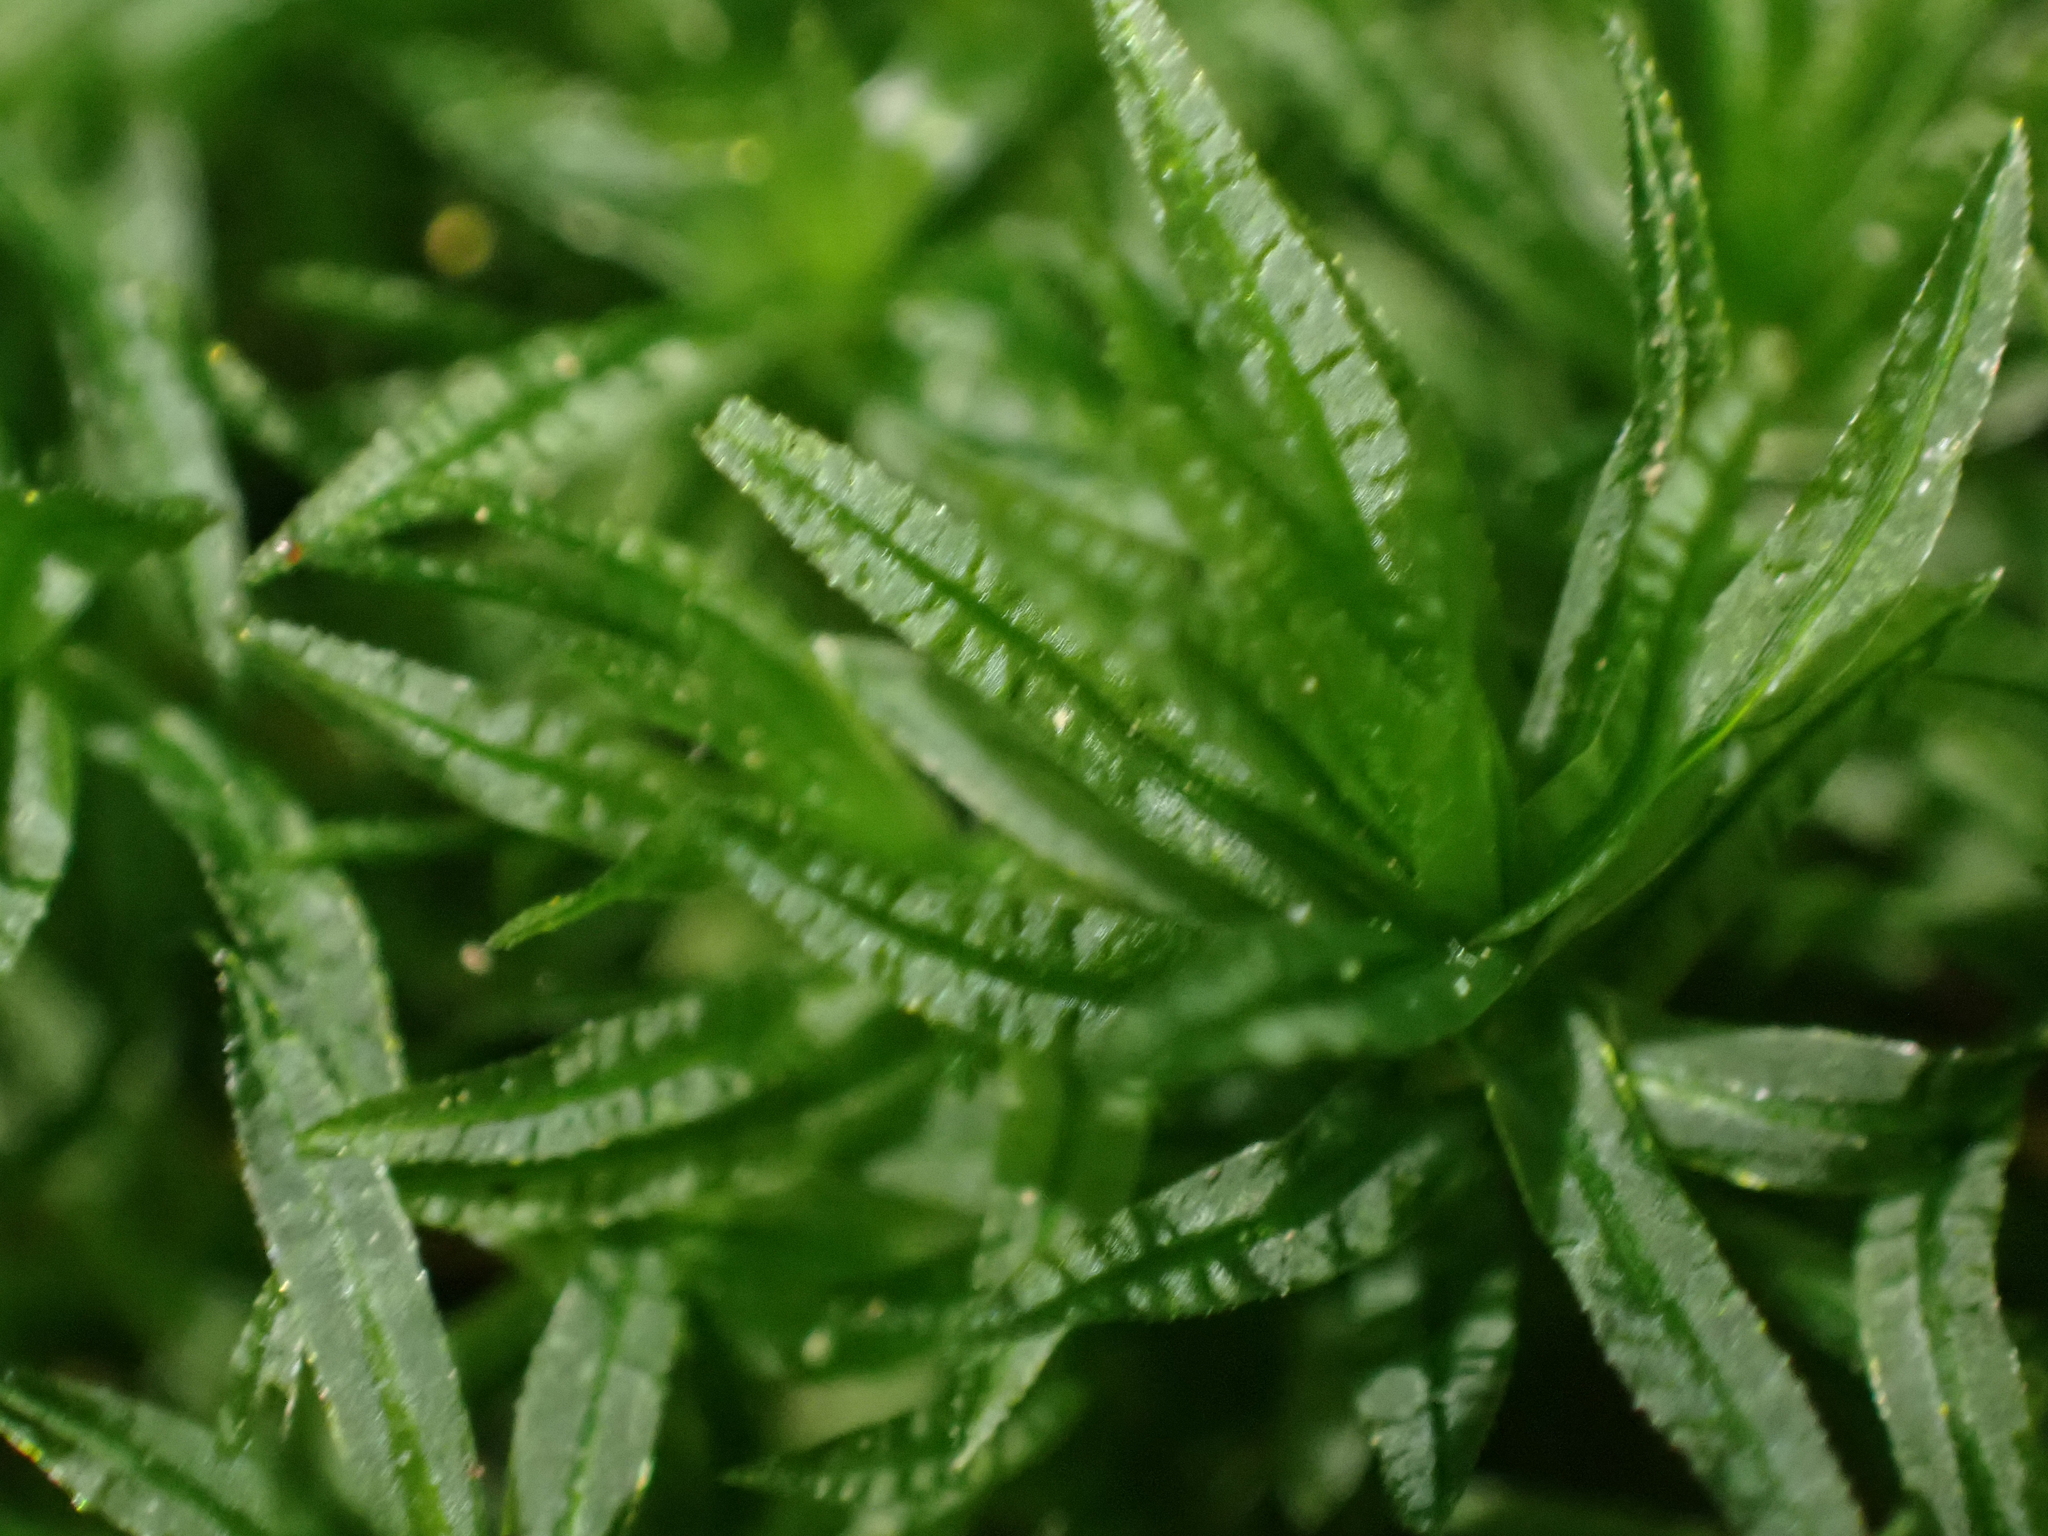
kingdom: Plantae
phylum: Bryophyta
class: Polytrichopsida
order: Polytrichales
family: Polytrichaceae
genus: Atrichum
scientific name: Atrichum undulatum
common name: Common smoothcap
